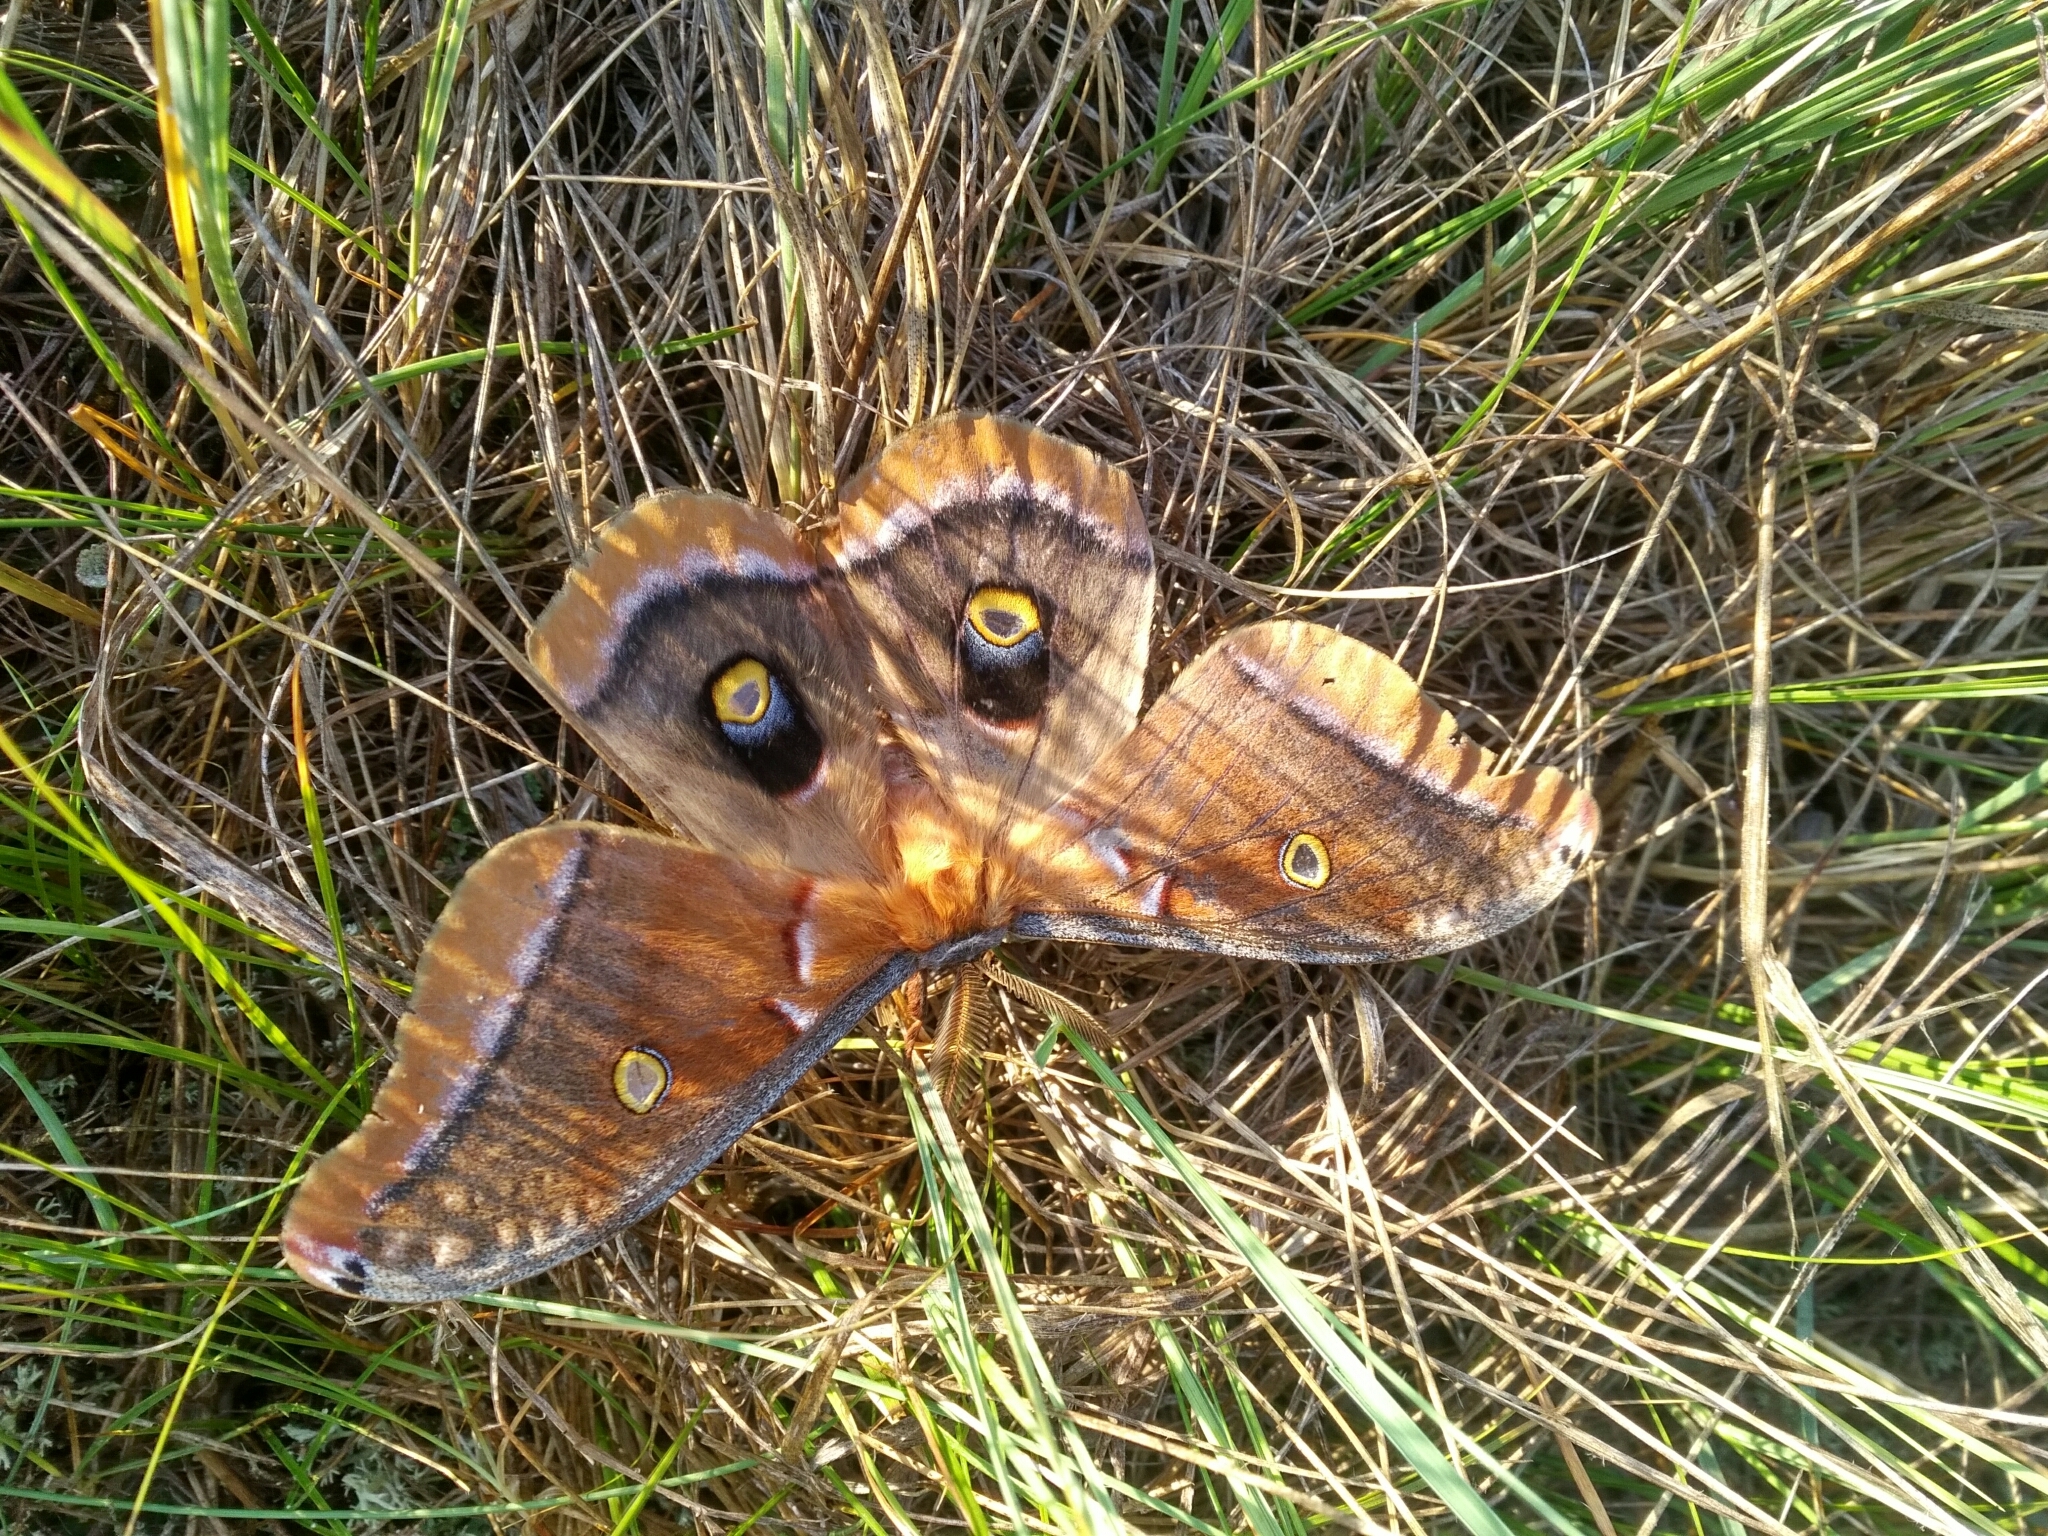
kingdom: Animalia
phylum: Arthropoda
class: Insecta
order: Lepidoptera
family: Saturniidae
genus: Antheraea
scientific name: Antheraea polyphemus
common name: Polyphemus moth
